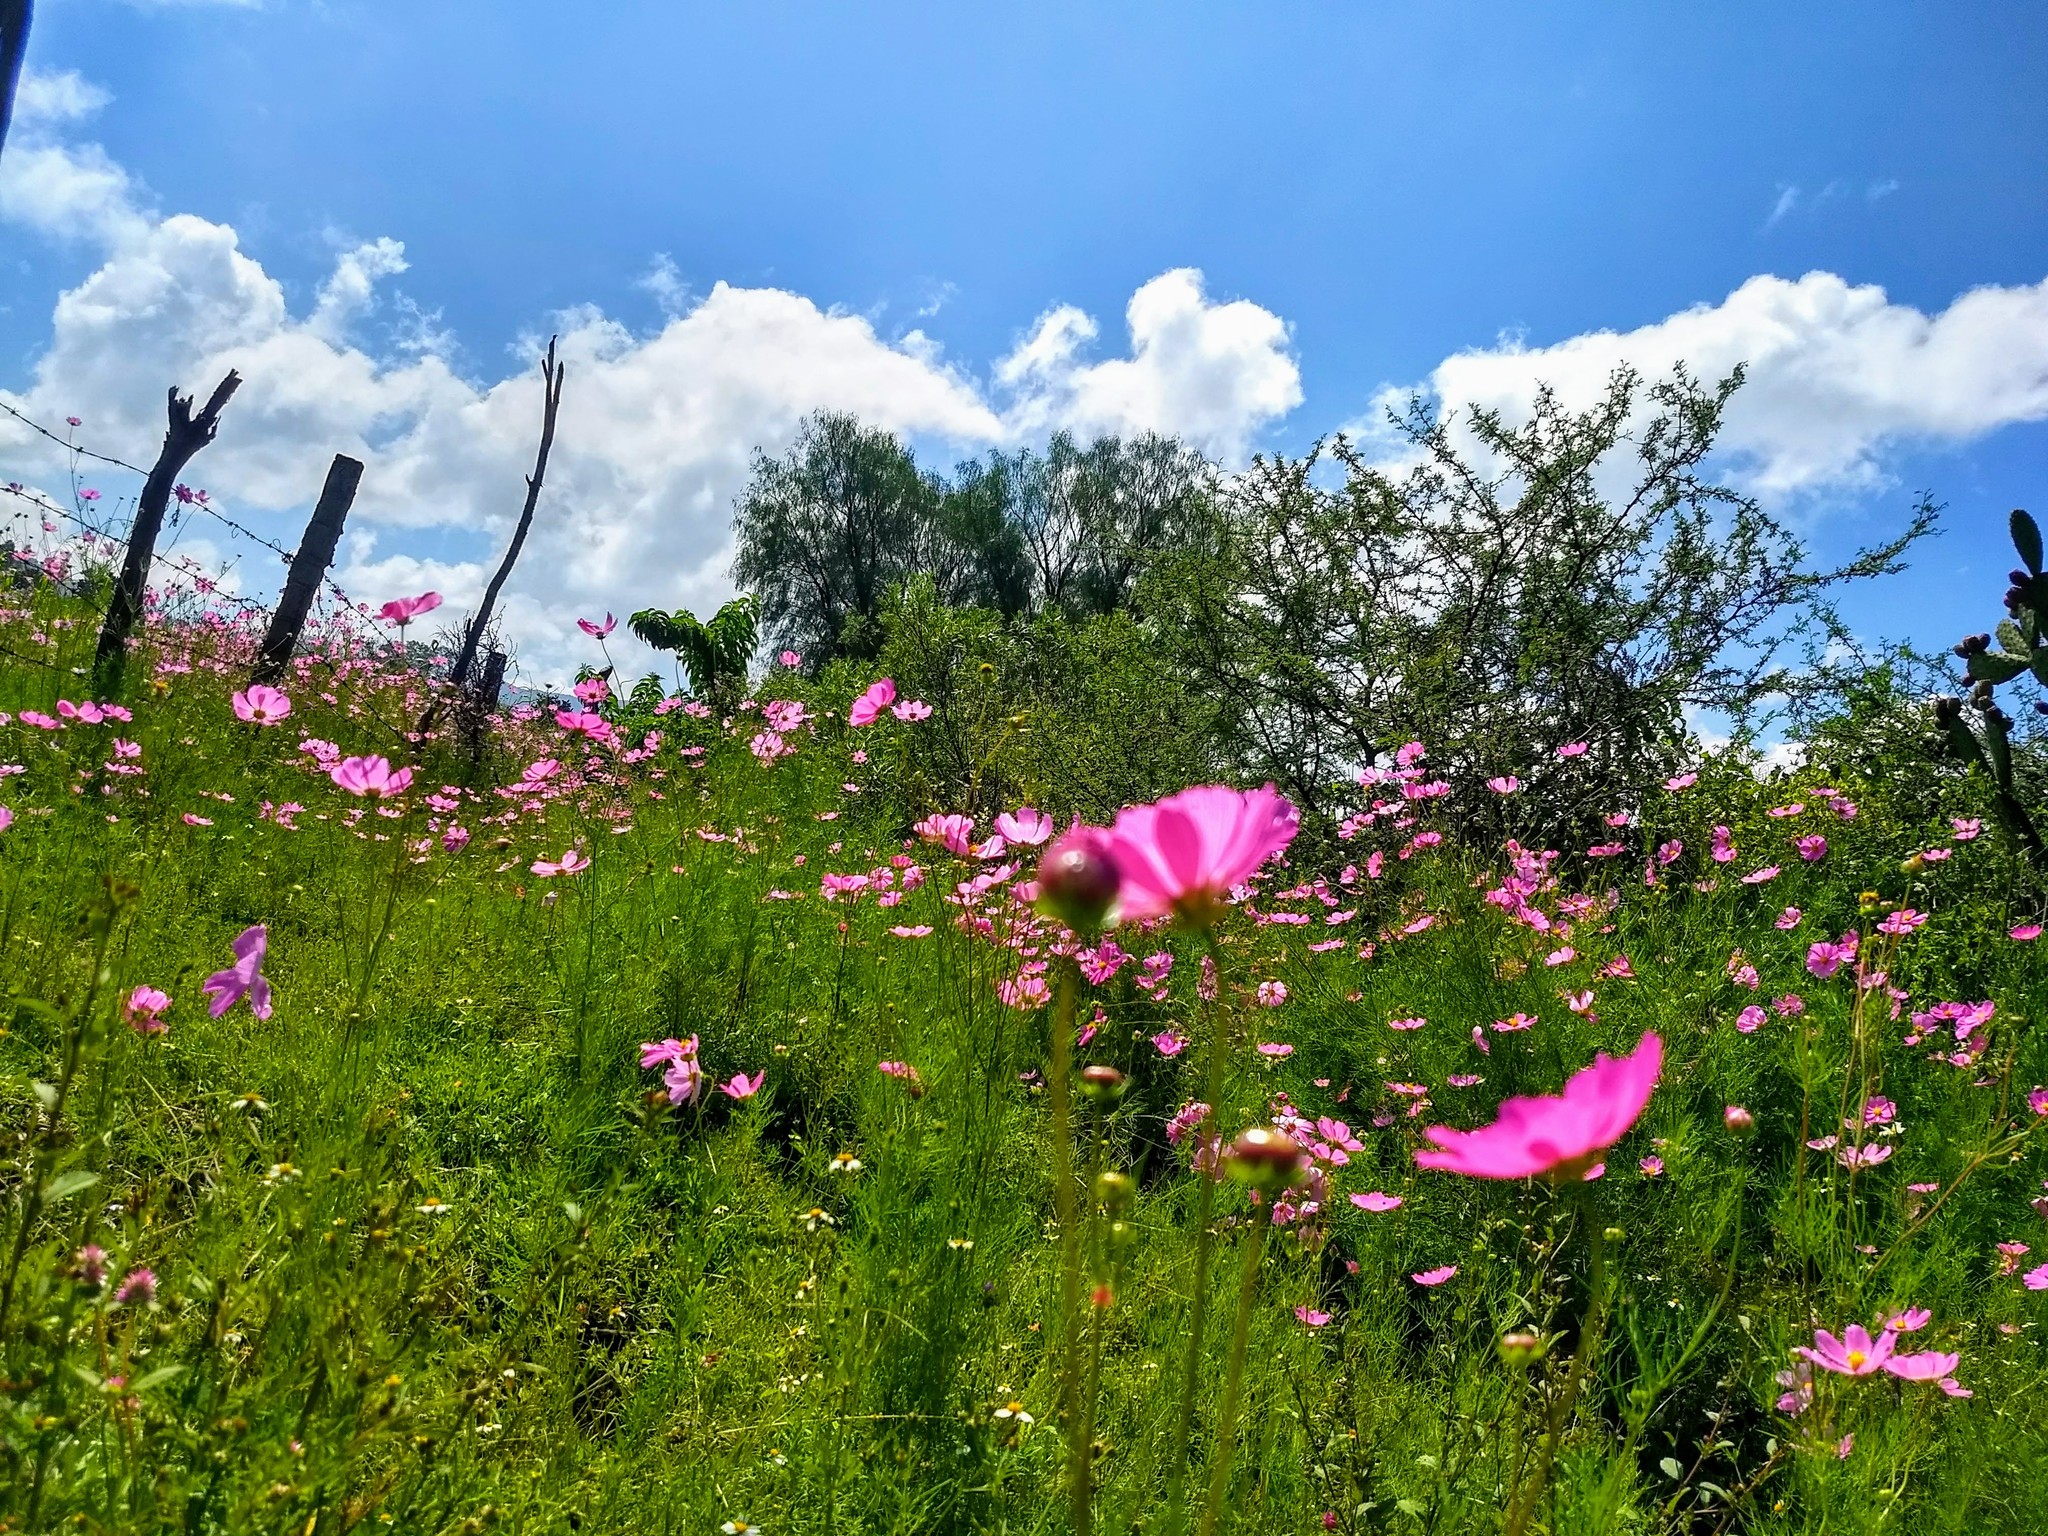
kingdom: Plantae
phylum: Tracheophyta
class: Magnoliopsida
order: Asterales
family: Asteraceae
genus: Cosmos
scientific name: Cosmos bipinnatus
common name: Garden cosmos
